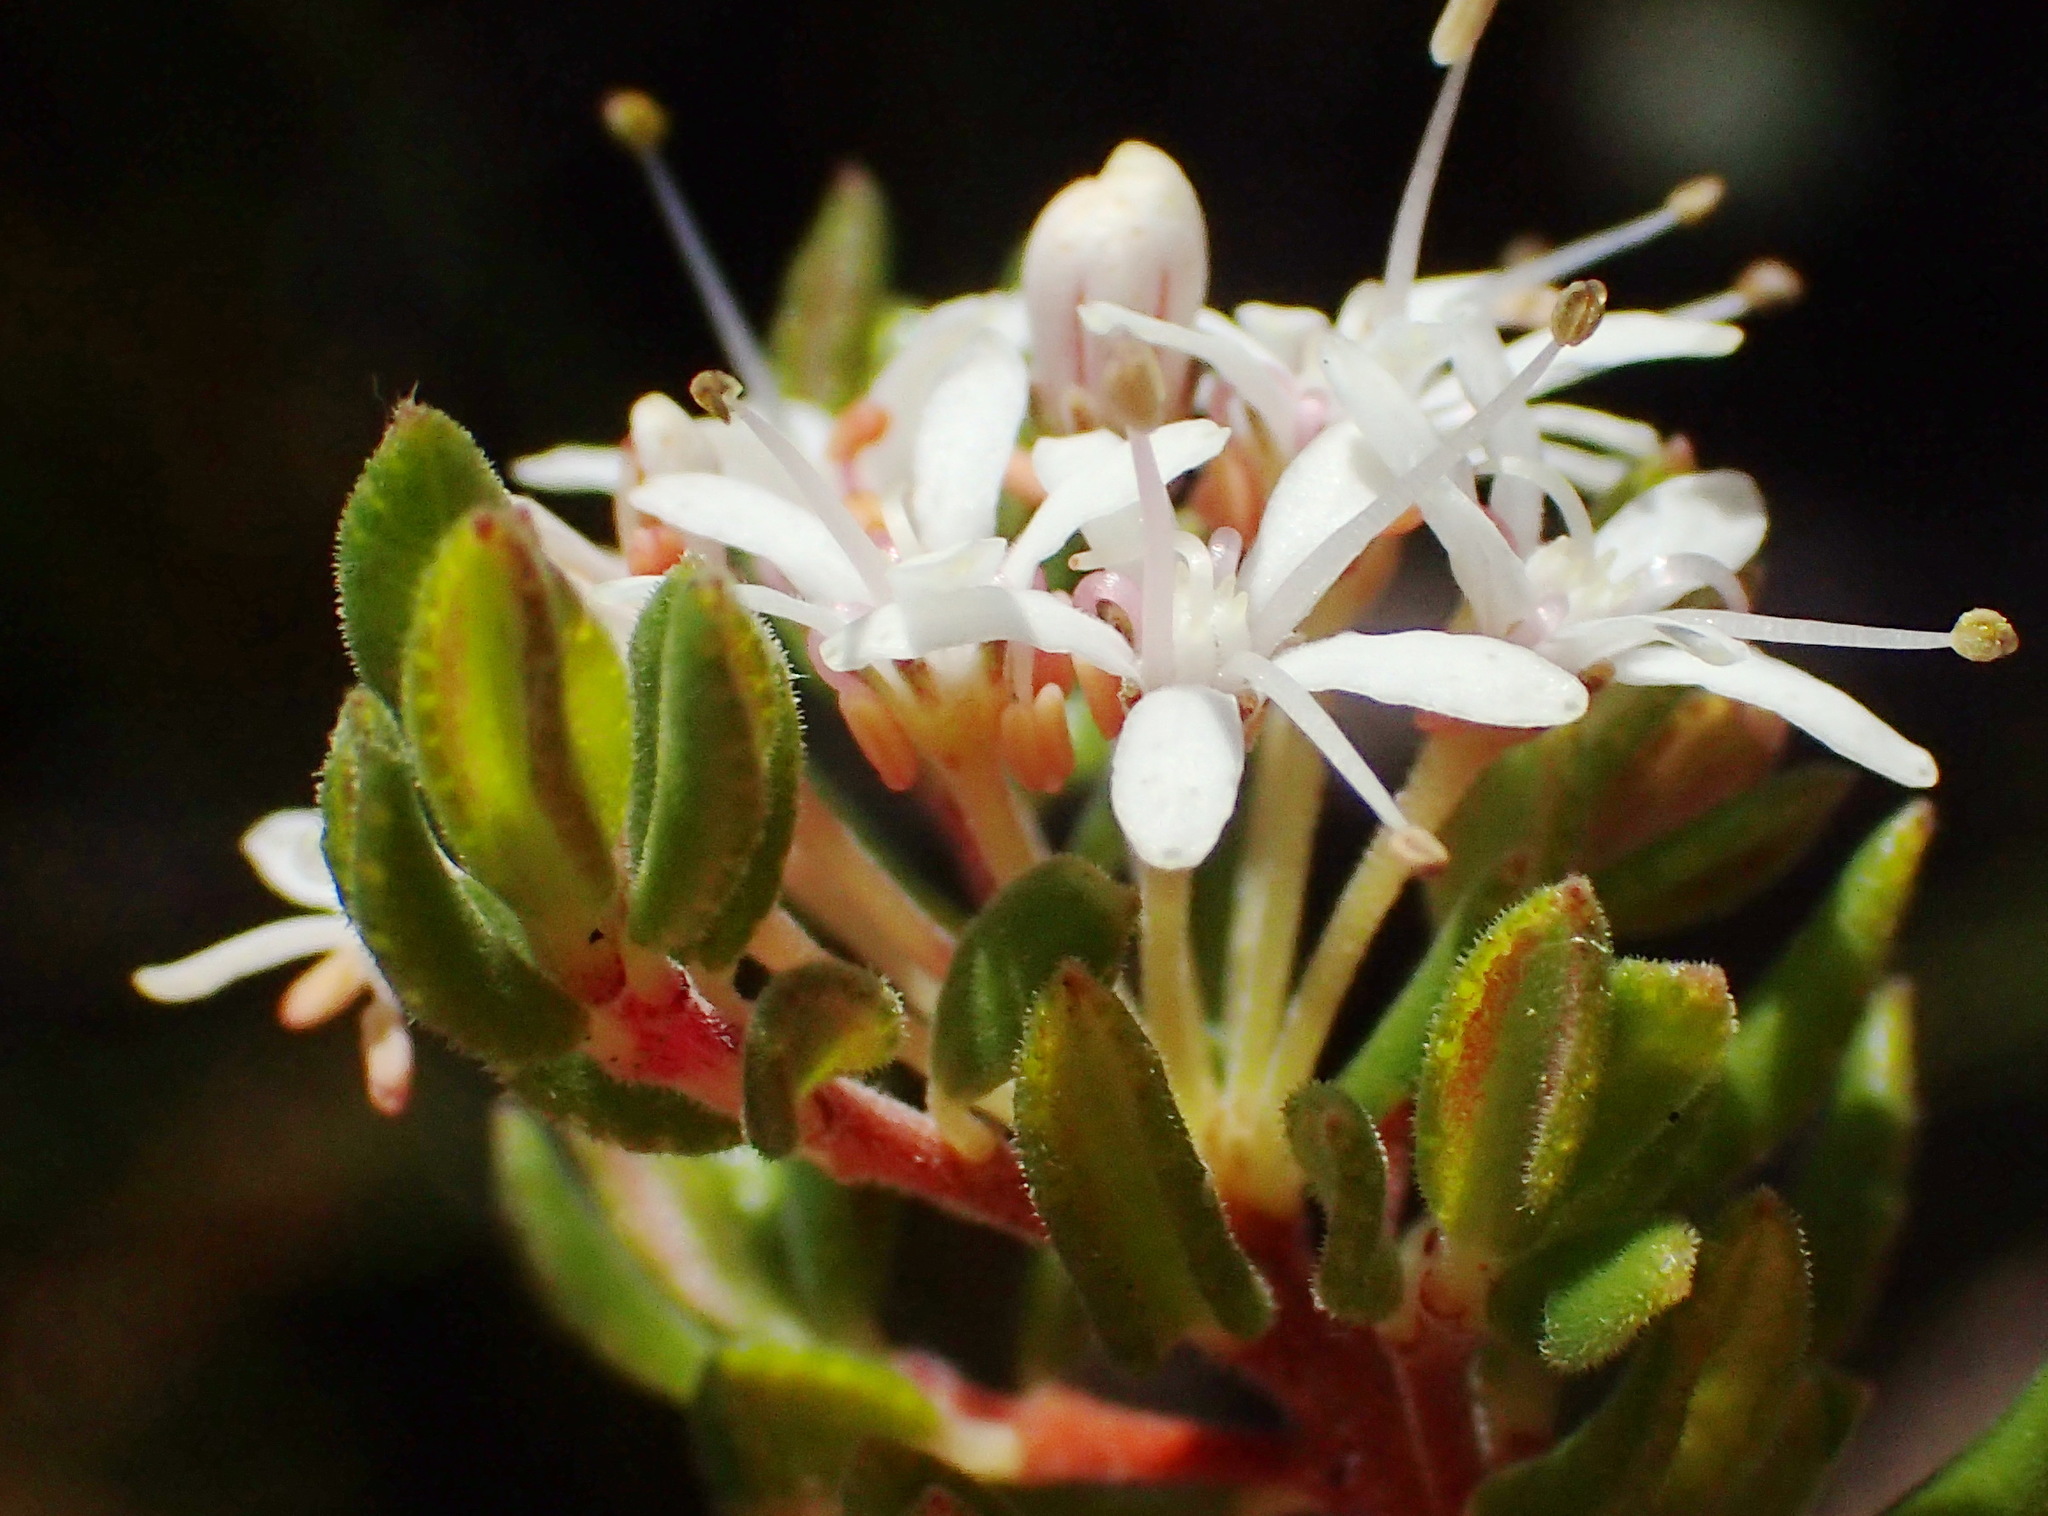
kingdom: Plantae
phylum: Tracheophyta
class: Magnoliopsida
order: Sapindales
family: Rutaceae
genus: Agathosma
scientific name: Agathosma mundtii
